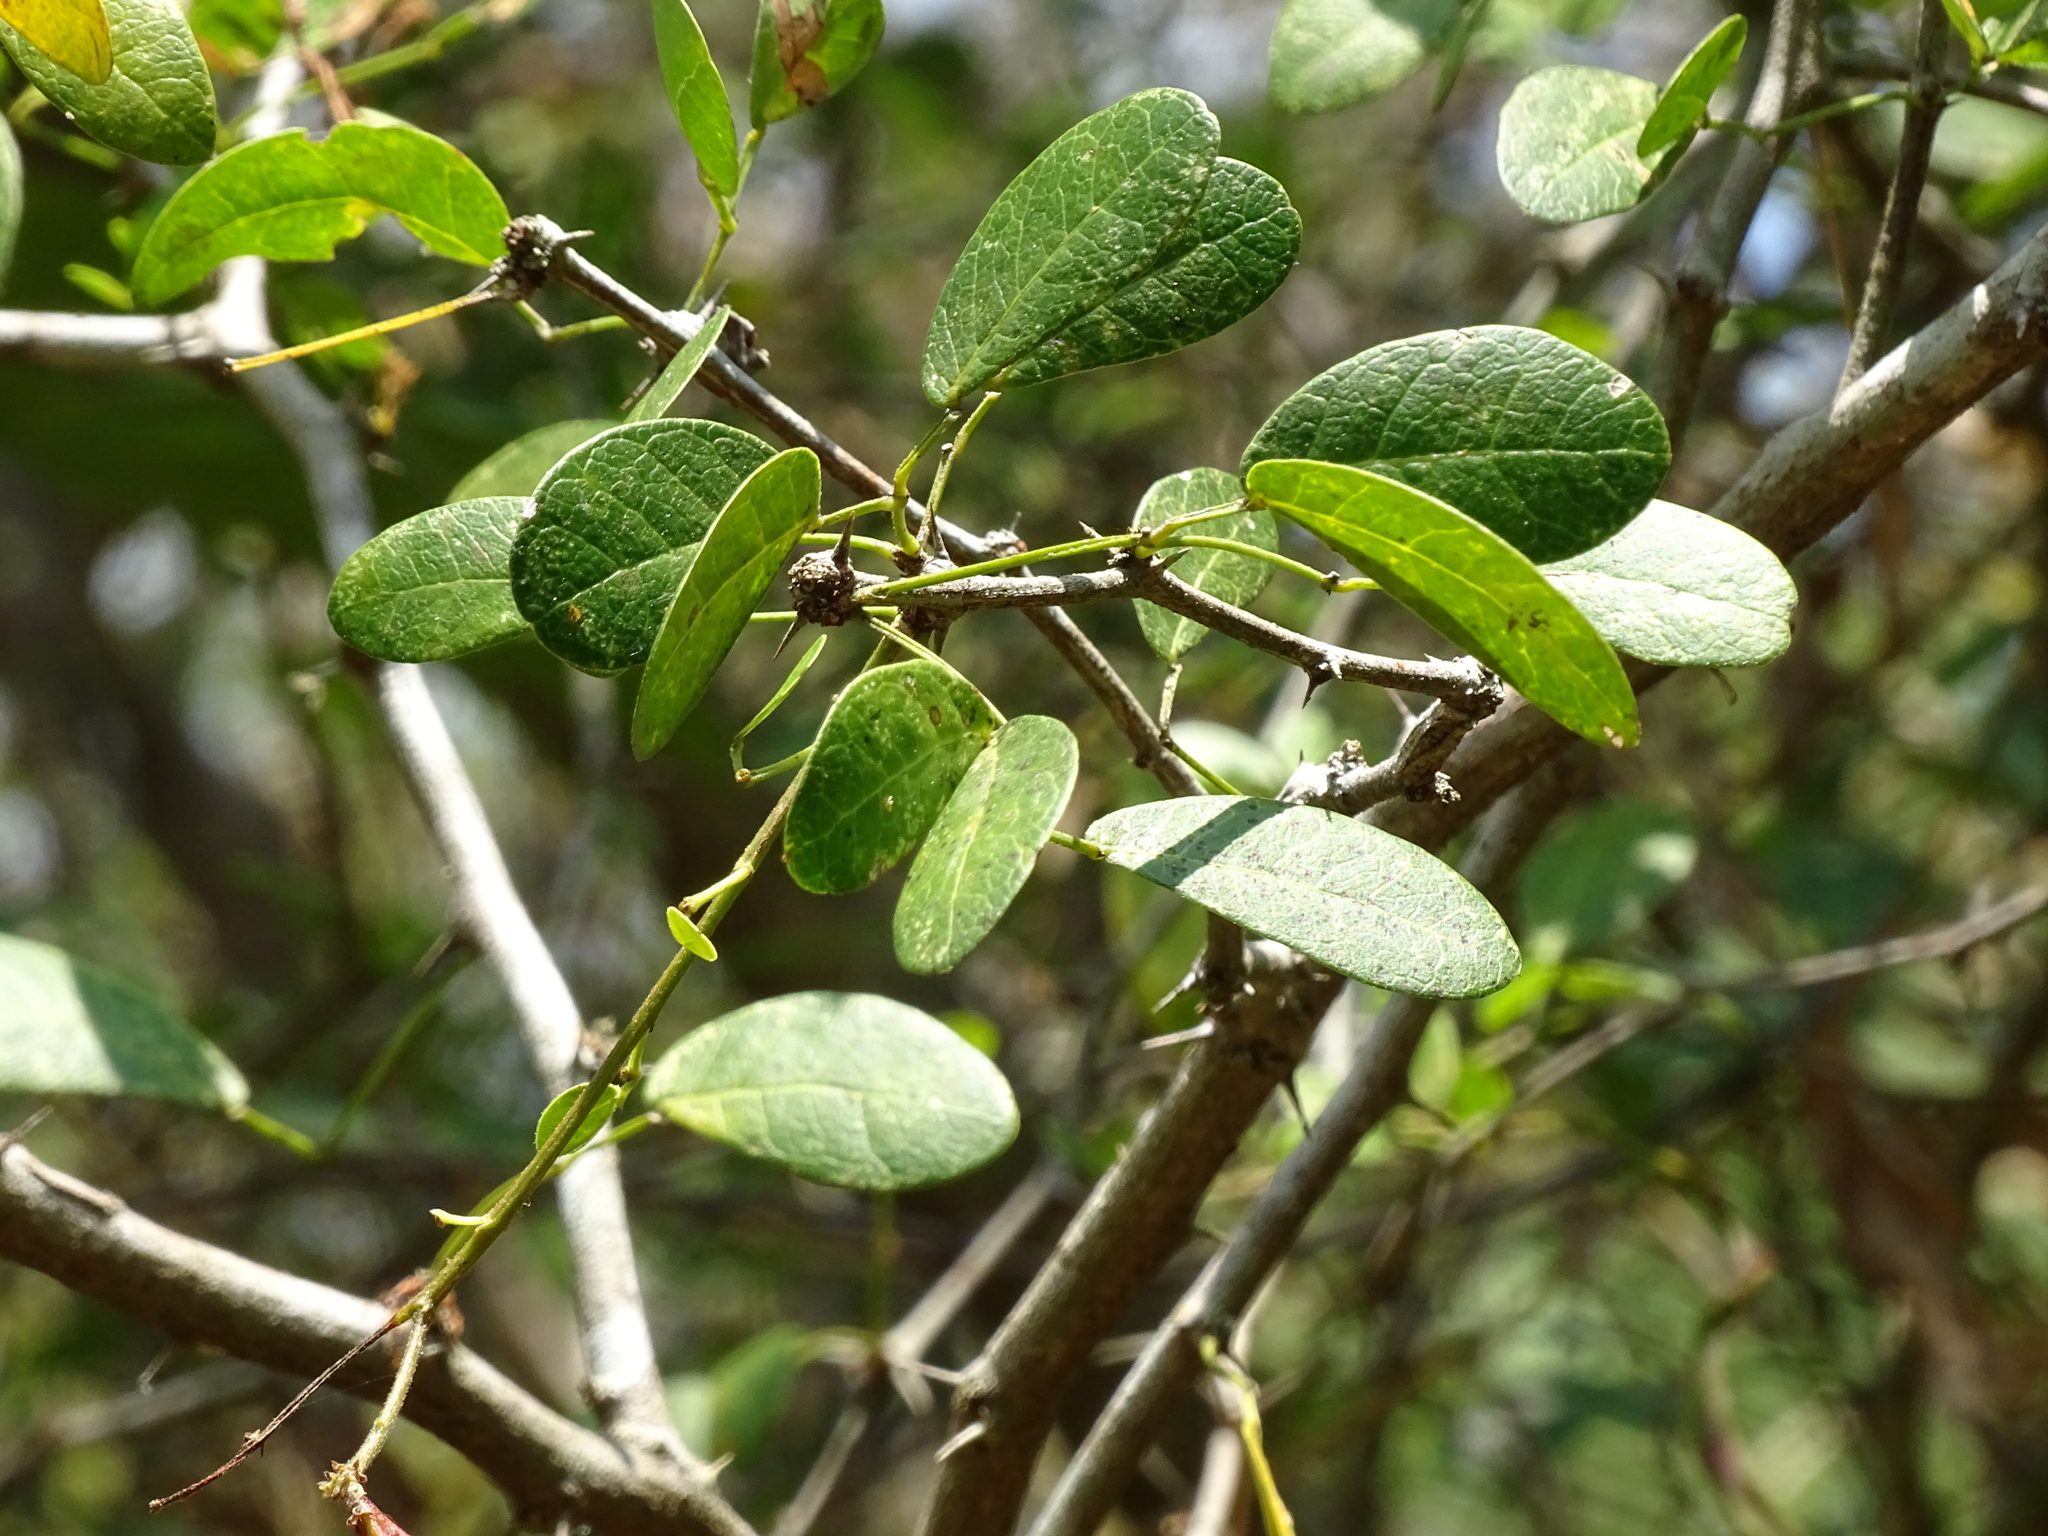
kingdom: Plantae
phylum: Tracheophyta
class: Magnoliopsida
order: Fabales
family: Fabaceae
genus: Pithecellobium
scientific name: Pithecellobium unguis-cati
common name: Cat's-claw
